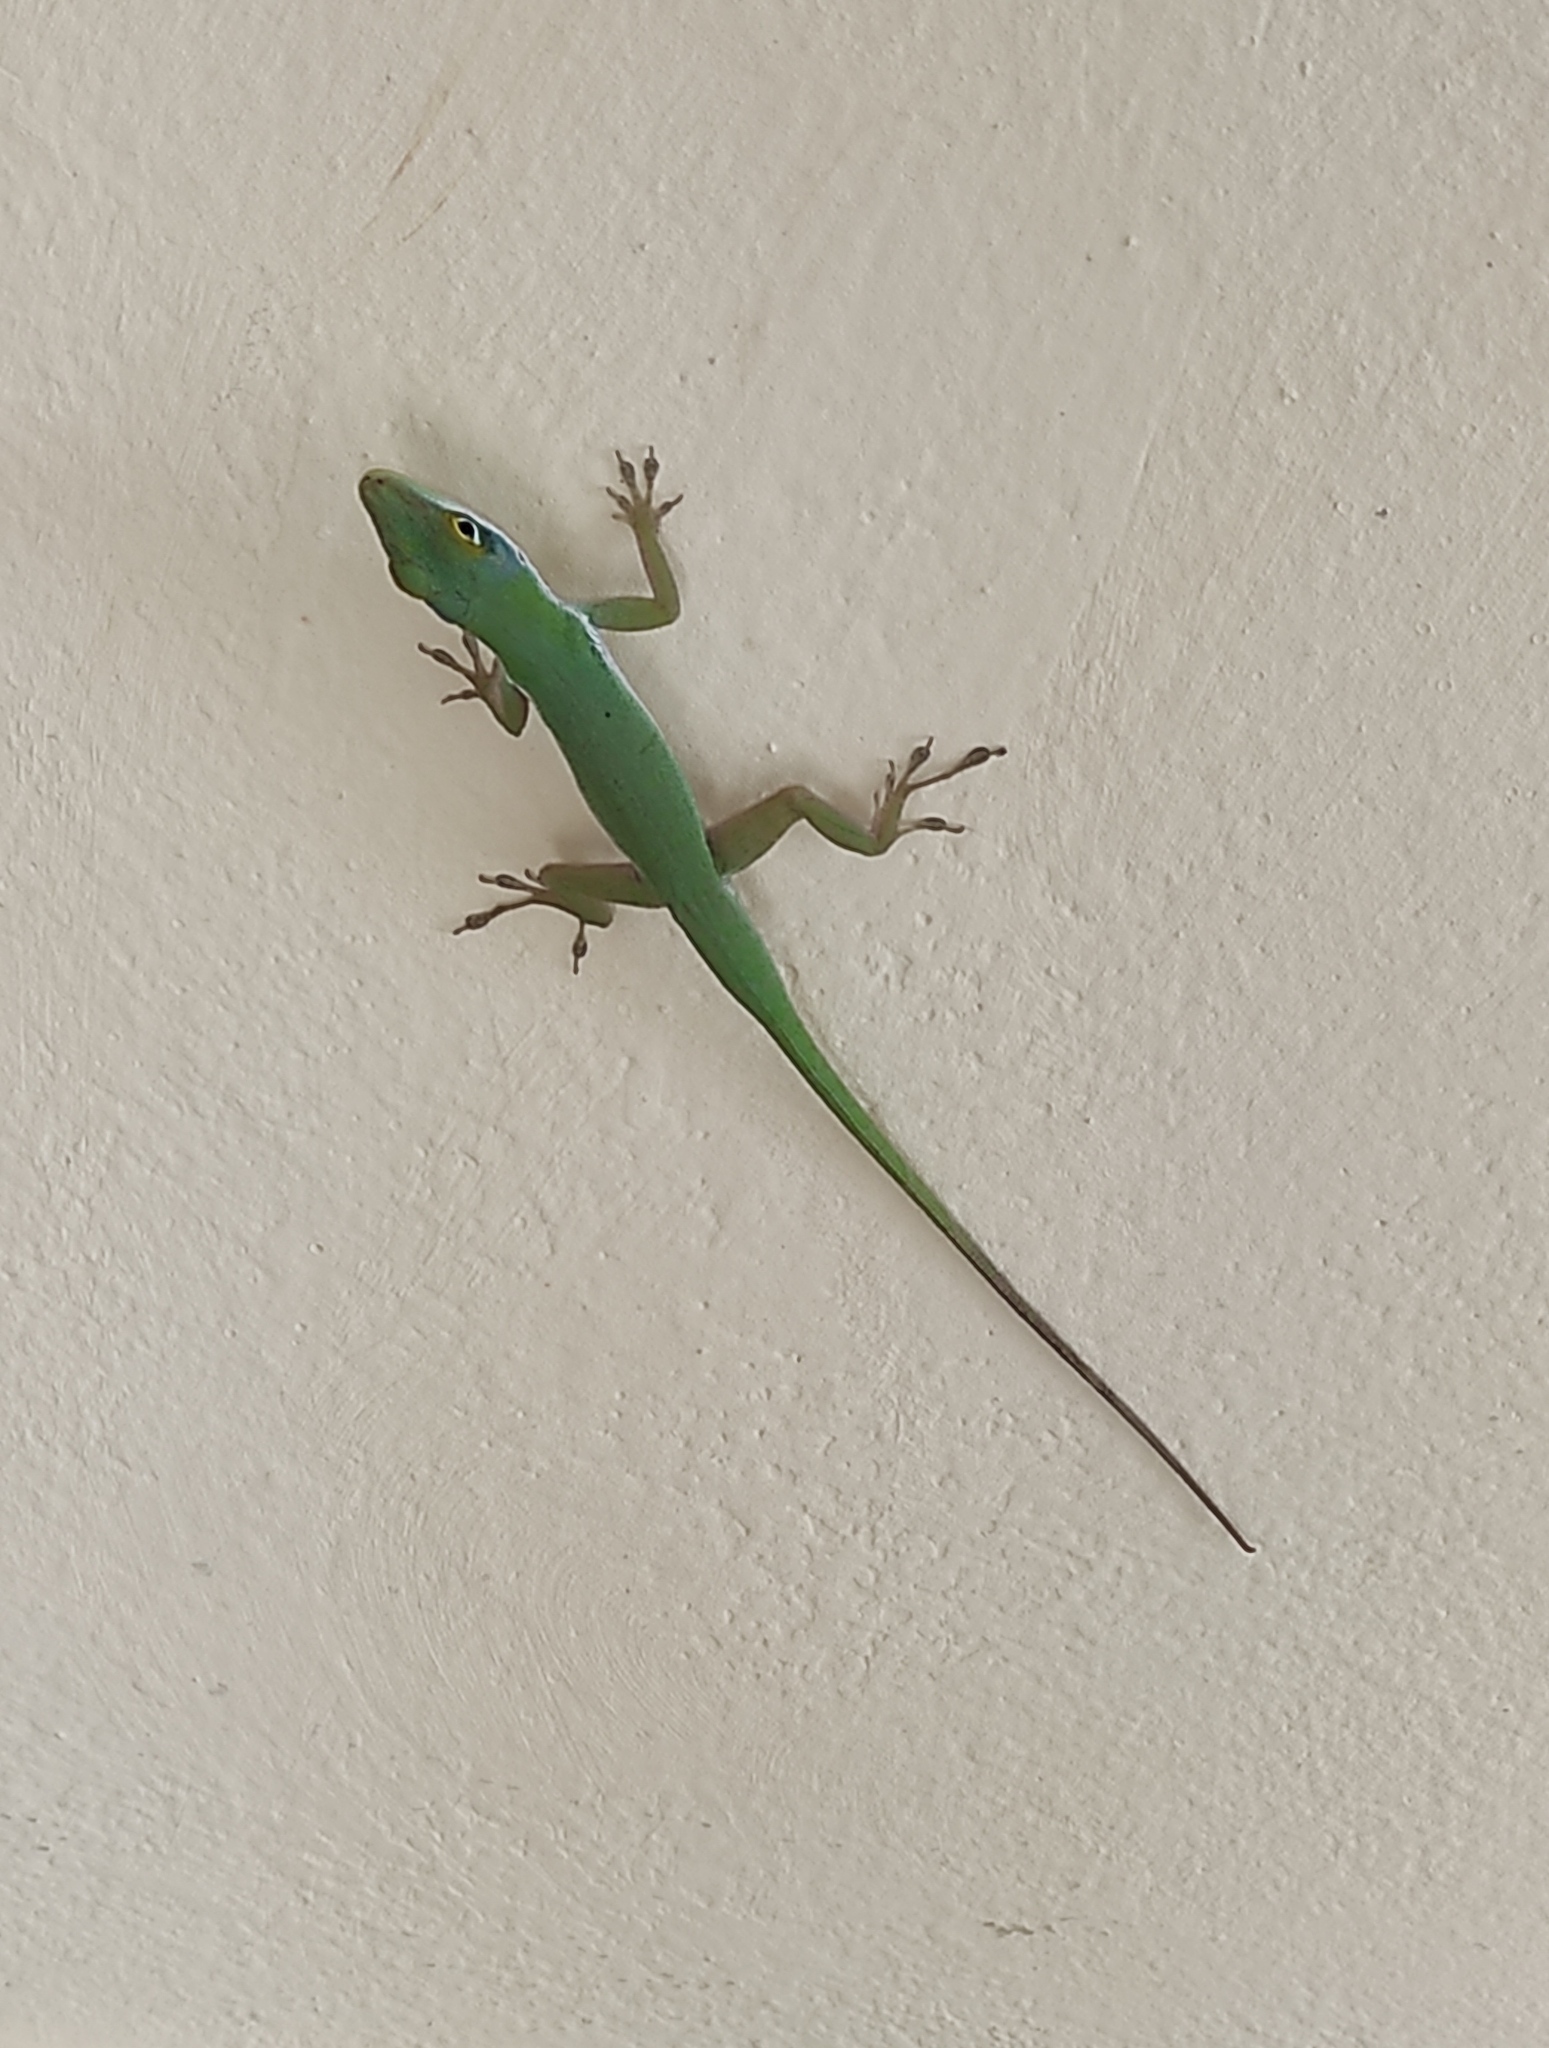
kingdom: Animalia
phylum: Chordata
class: Squamata
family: Dactyloidae
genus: Anolis
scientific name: Anolis chlorocyanus
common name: Hispaniolan green anole
